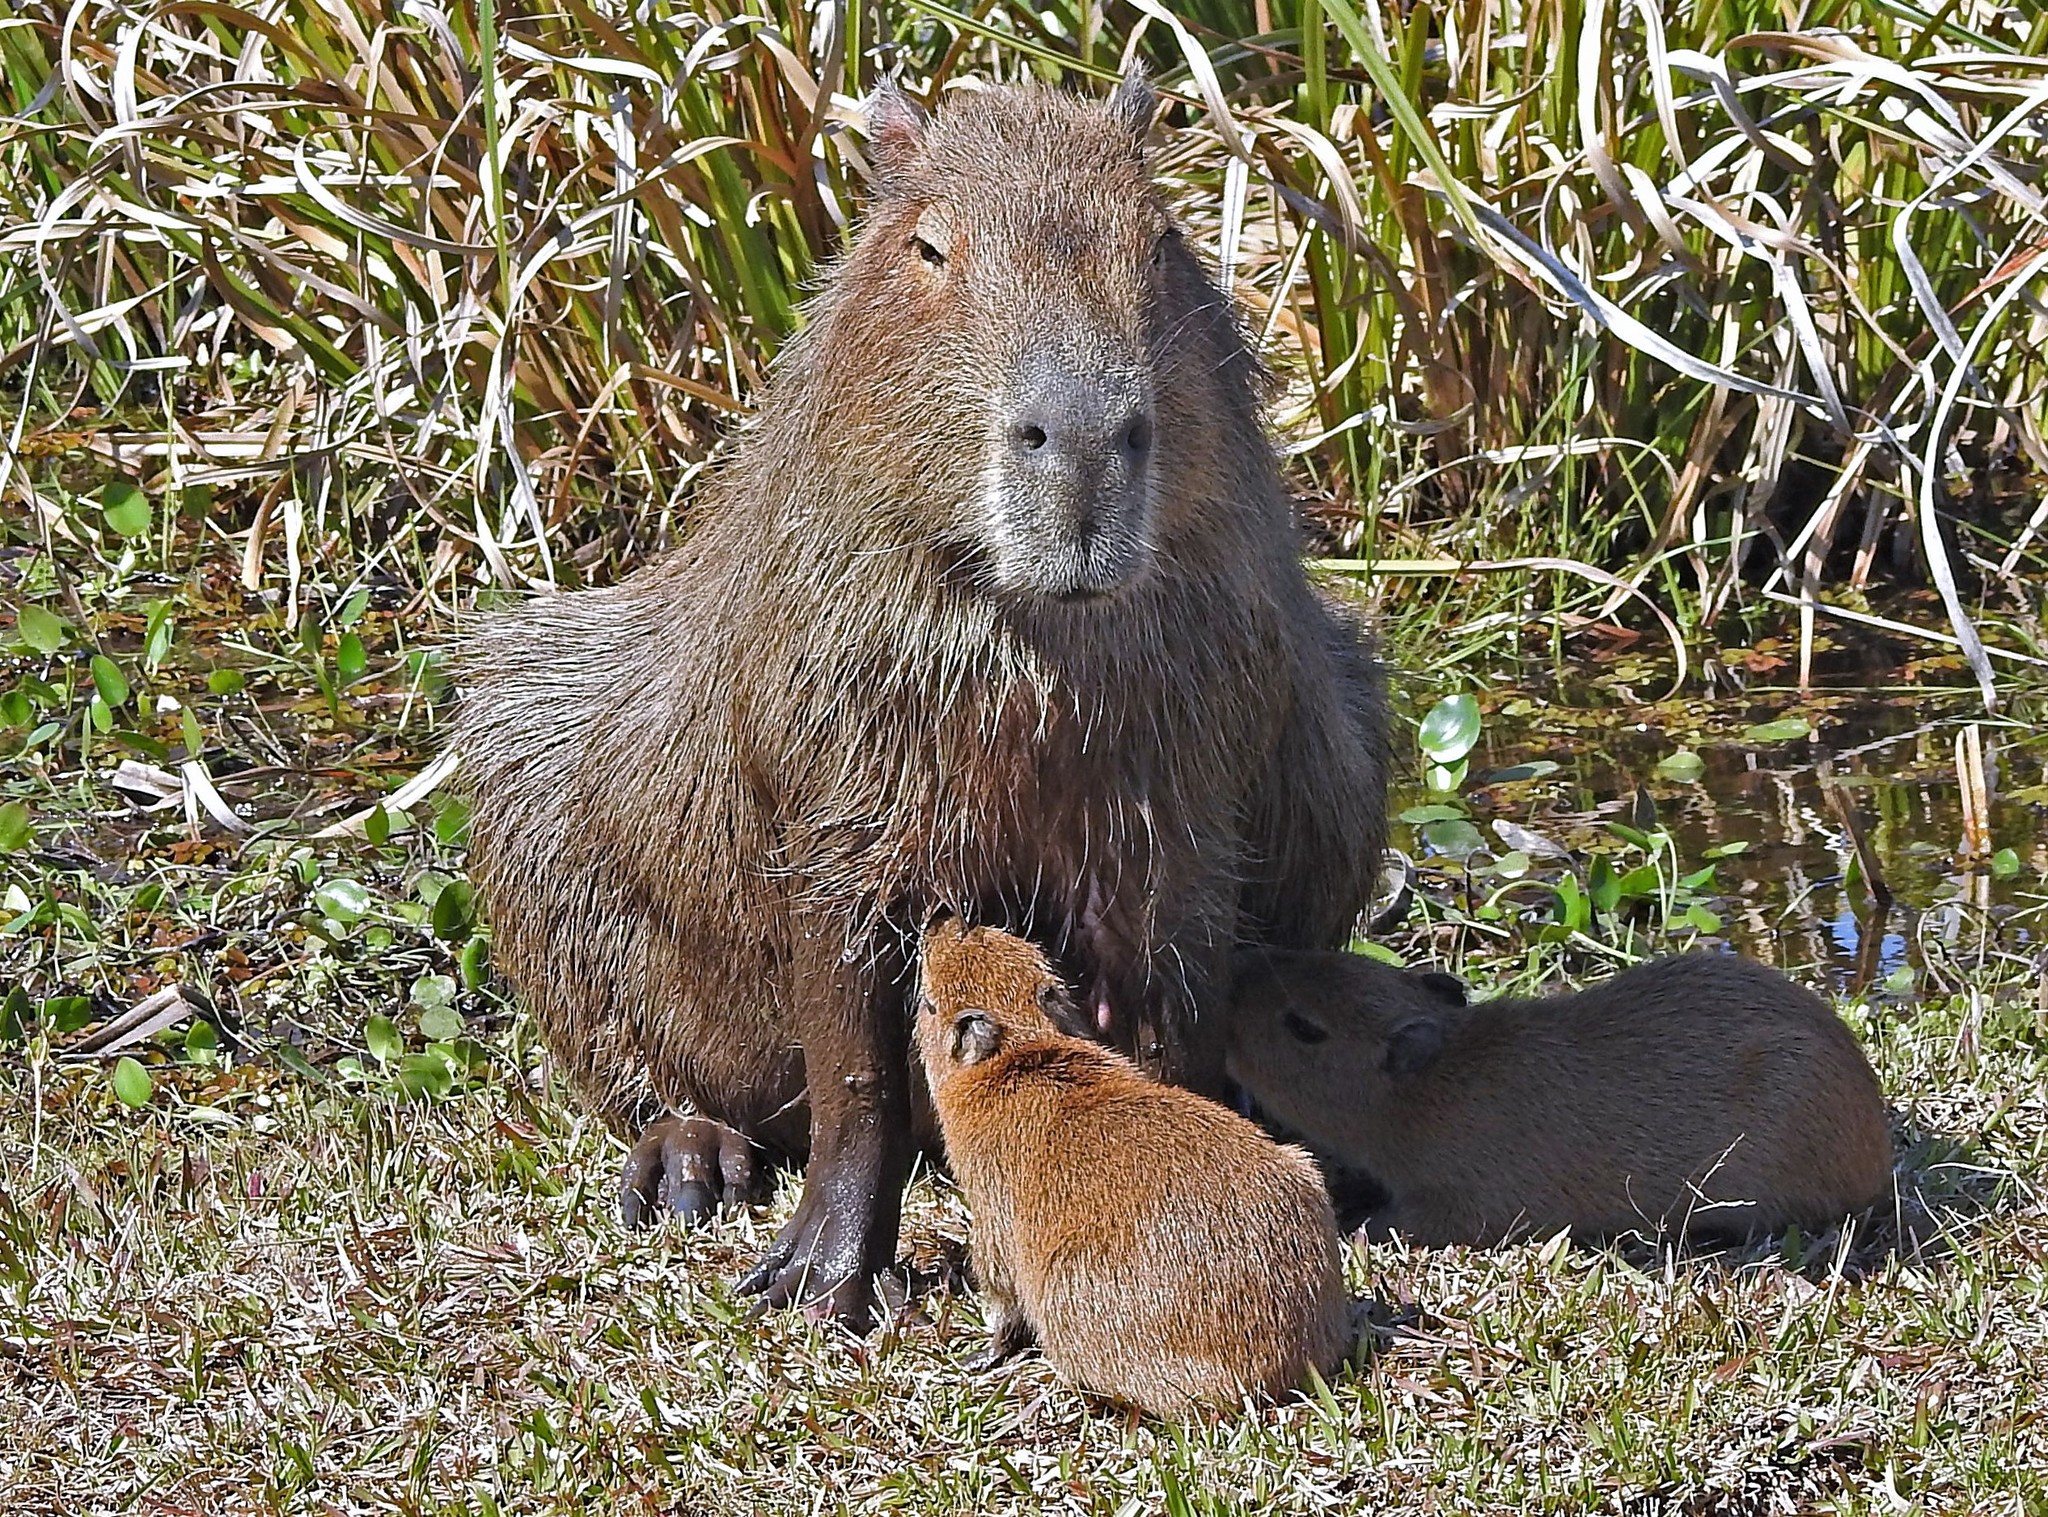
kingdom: Animalia
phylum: Chordata
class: Mammalia
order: Rodentia
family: Caviidae
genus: Hydrochoerus
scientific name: Hydrochoerus hydrochaeris
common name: Capybara
